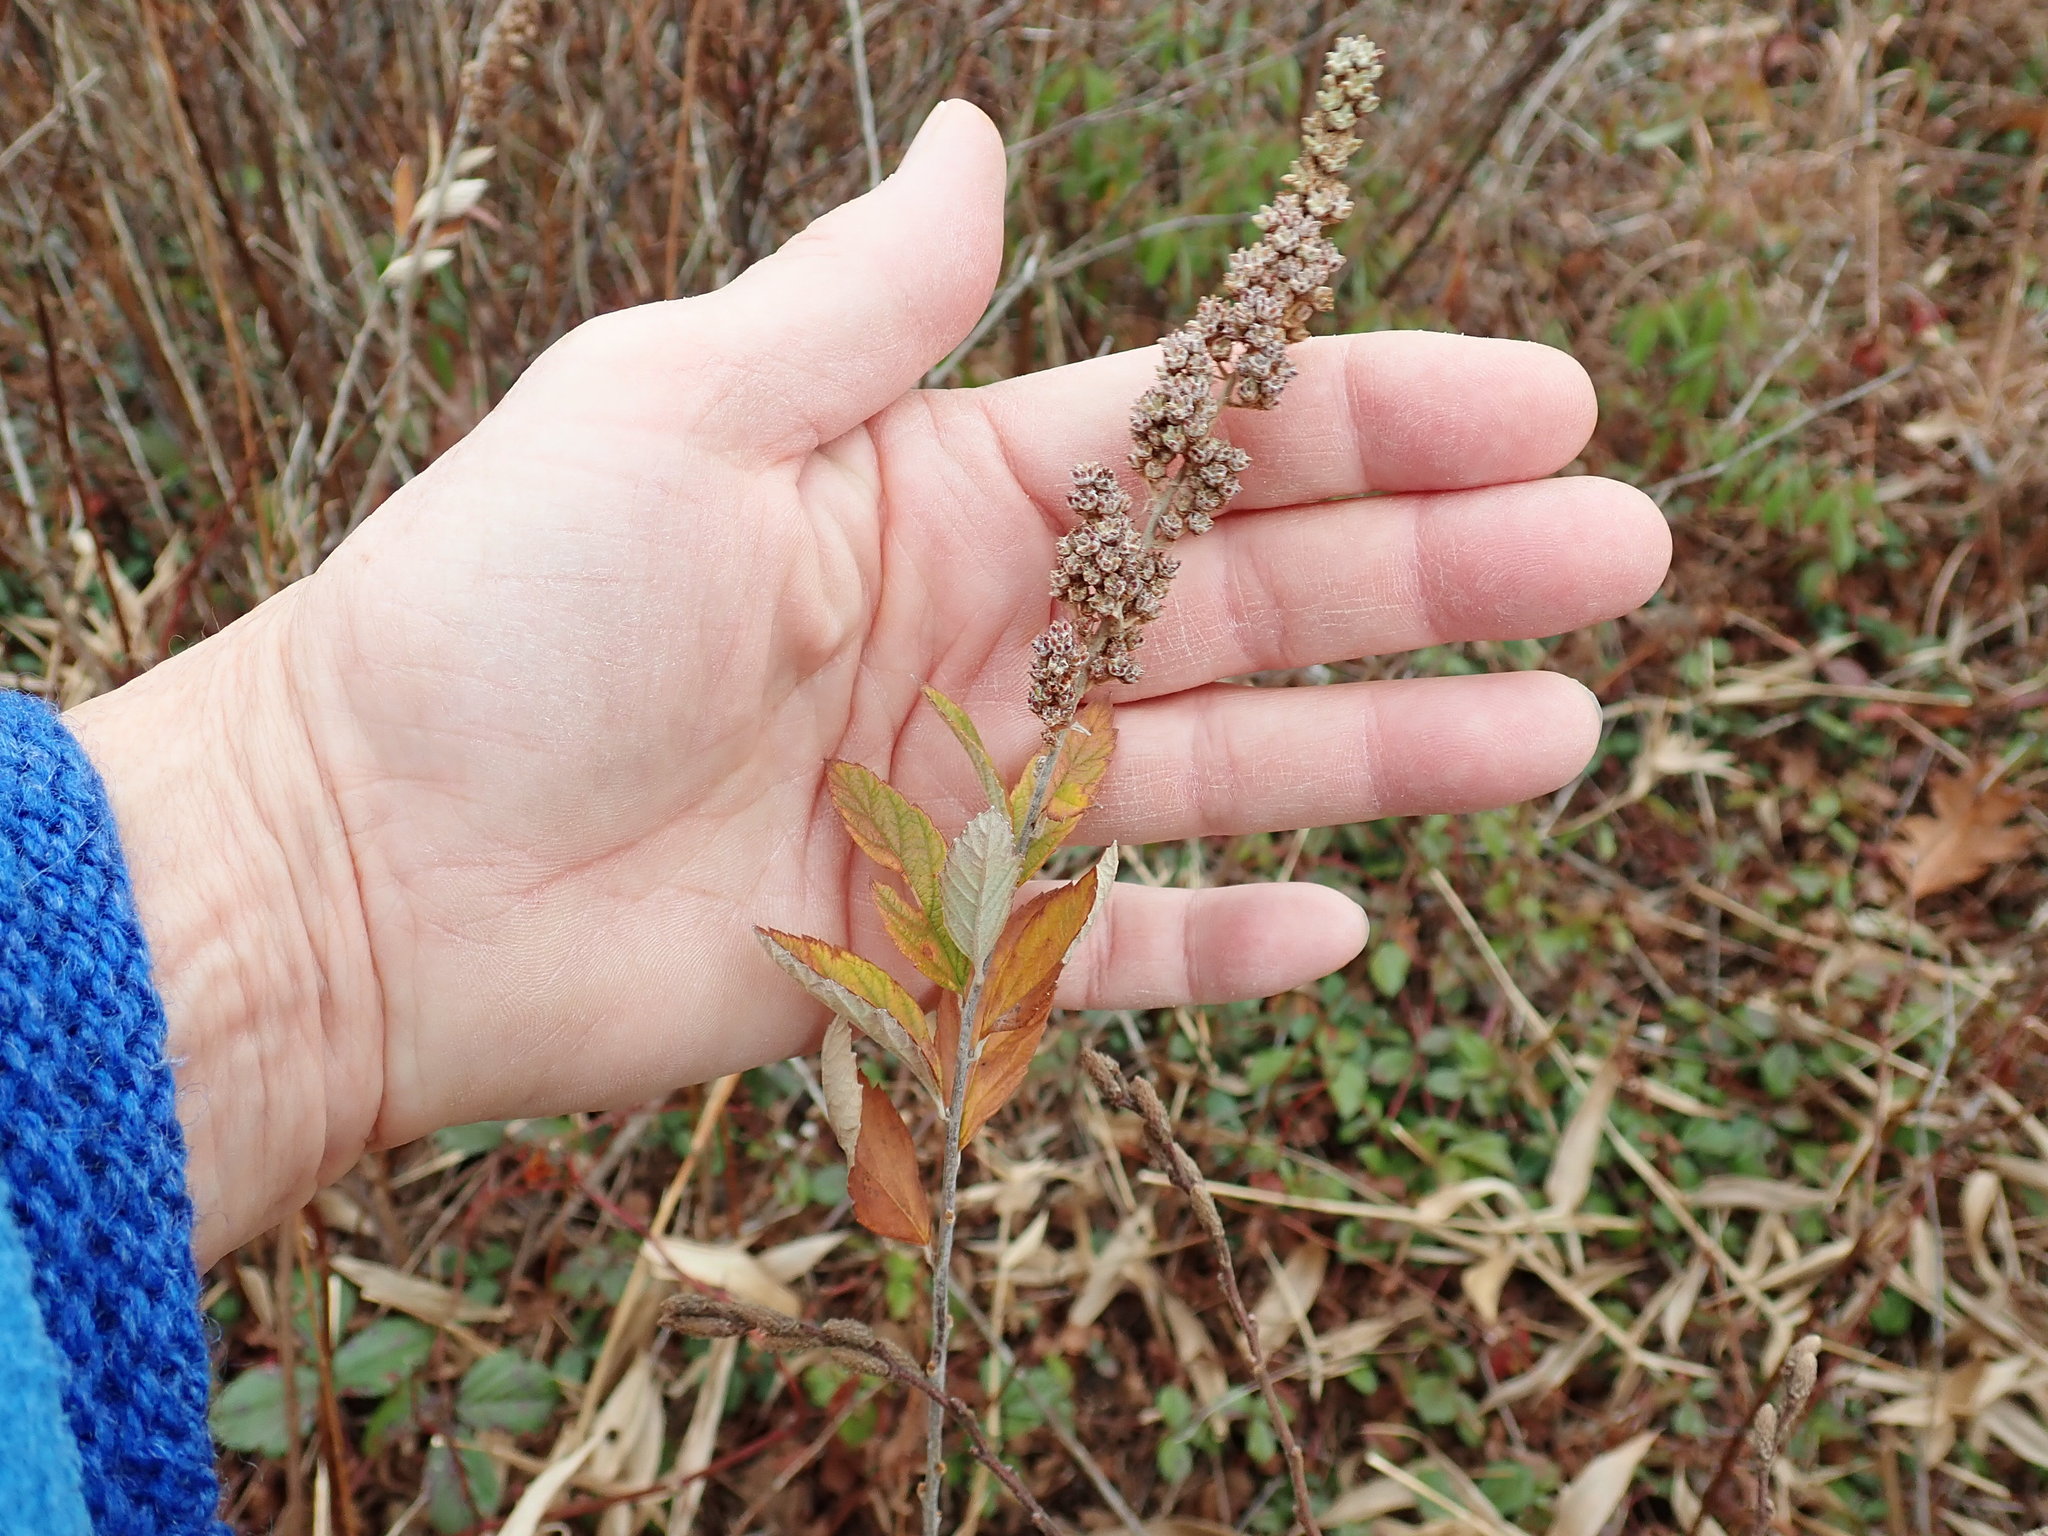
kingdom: Plantae
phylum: Tracheophyta
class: Magnoliopsida
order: Rosales
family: Rosaceae
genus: Spiraea
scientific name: Spiraea tomentosa
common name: Hardhack
